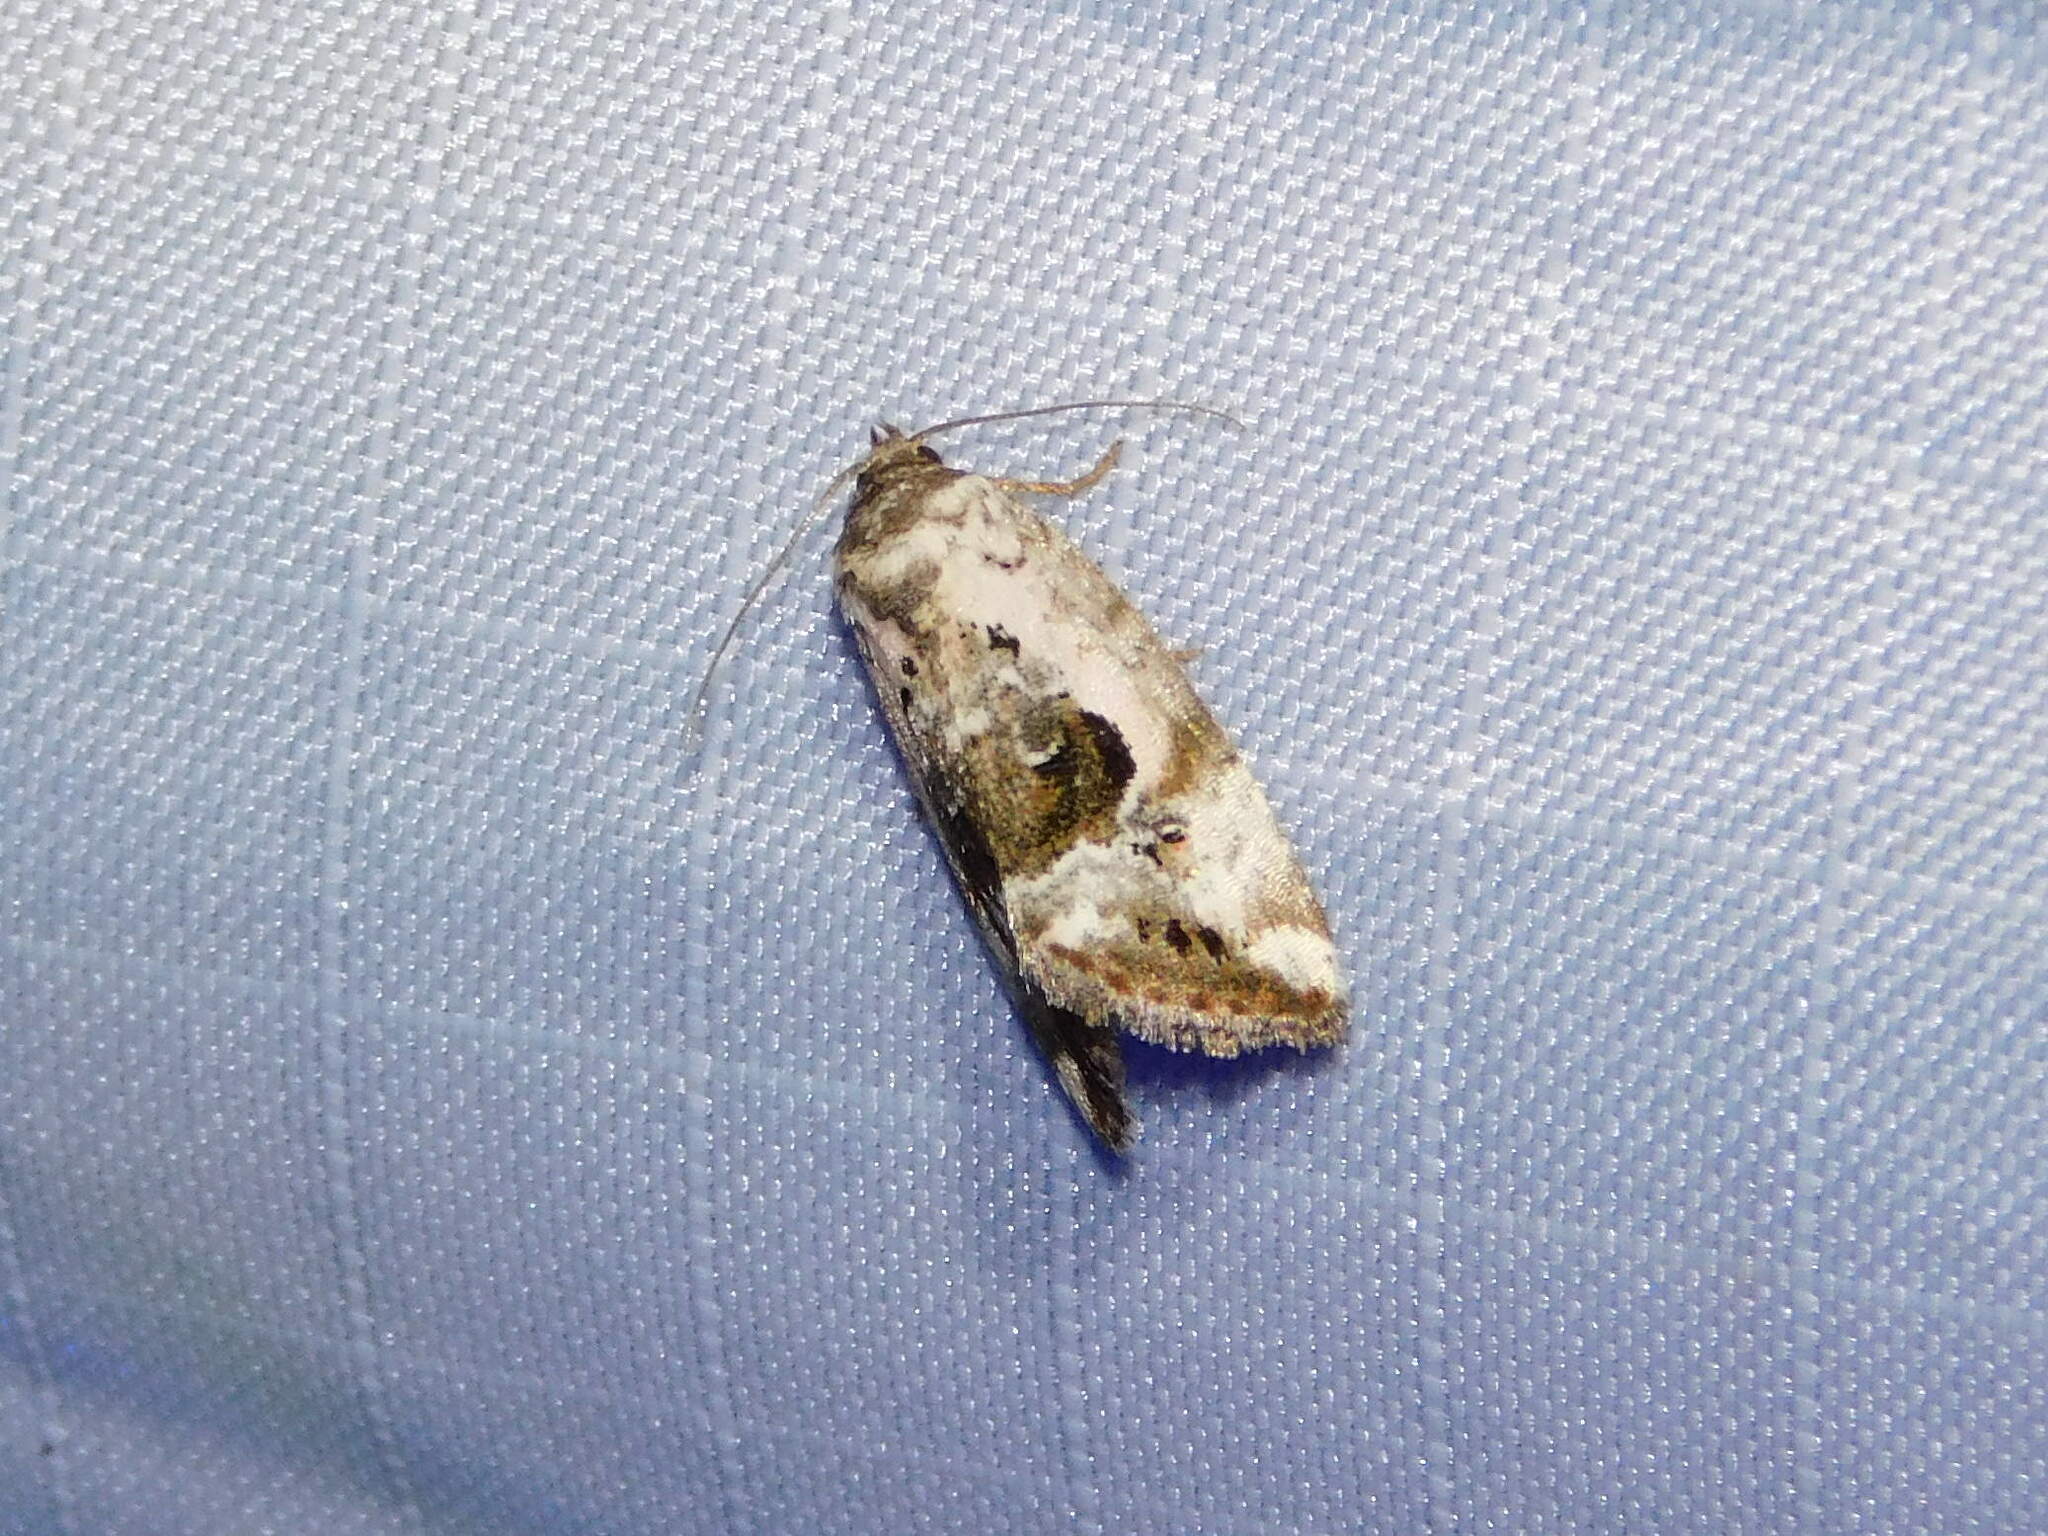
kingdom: Animalia
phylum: Arthropoda
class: Insecta
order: Lepidoptera
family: Noctuidae
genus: Elaphria
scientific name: Elaphria venustula
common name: Rosy marbled
